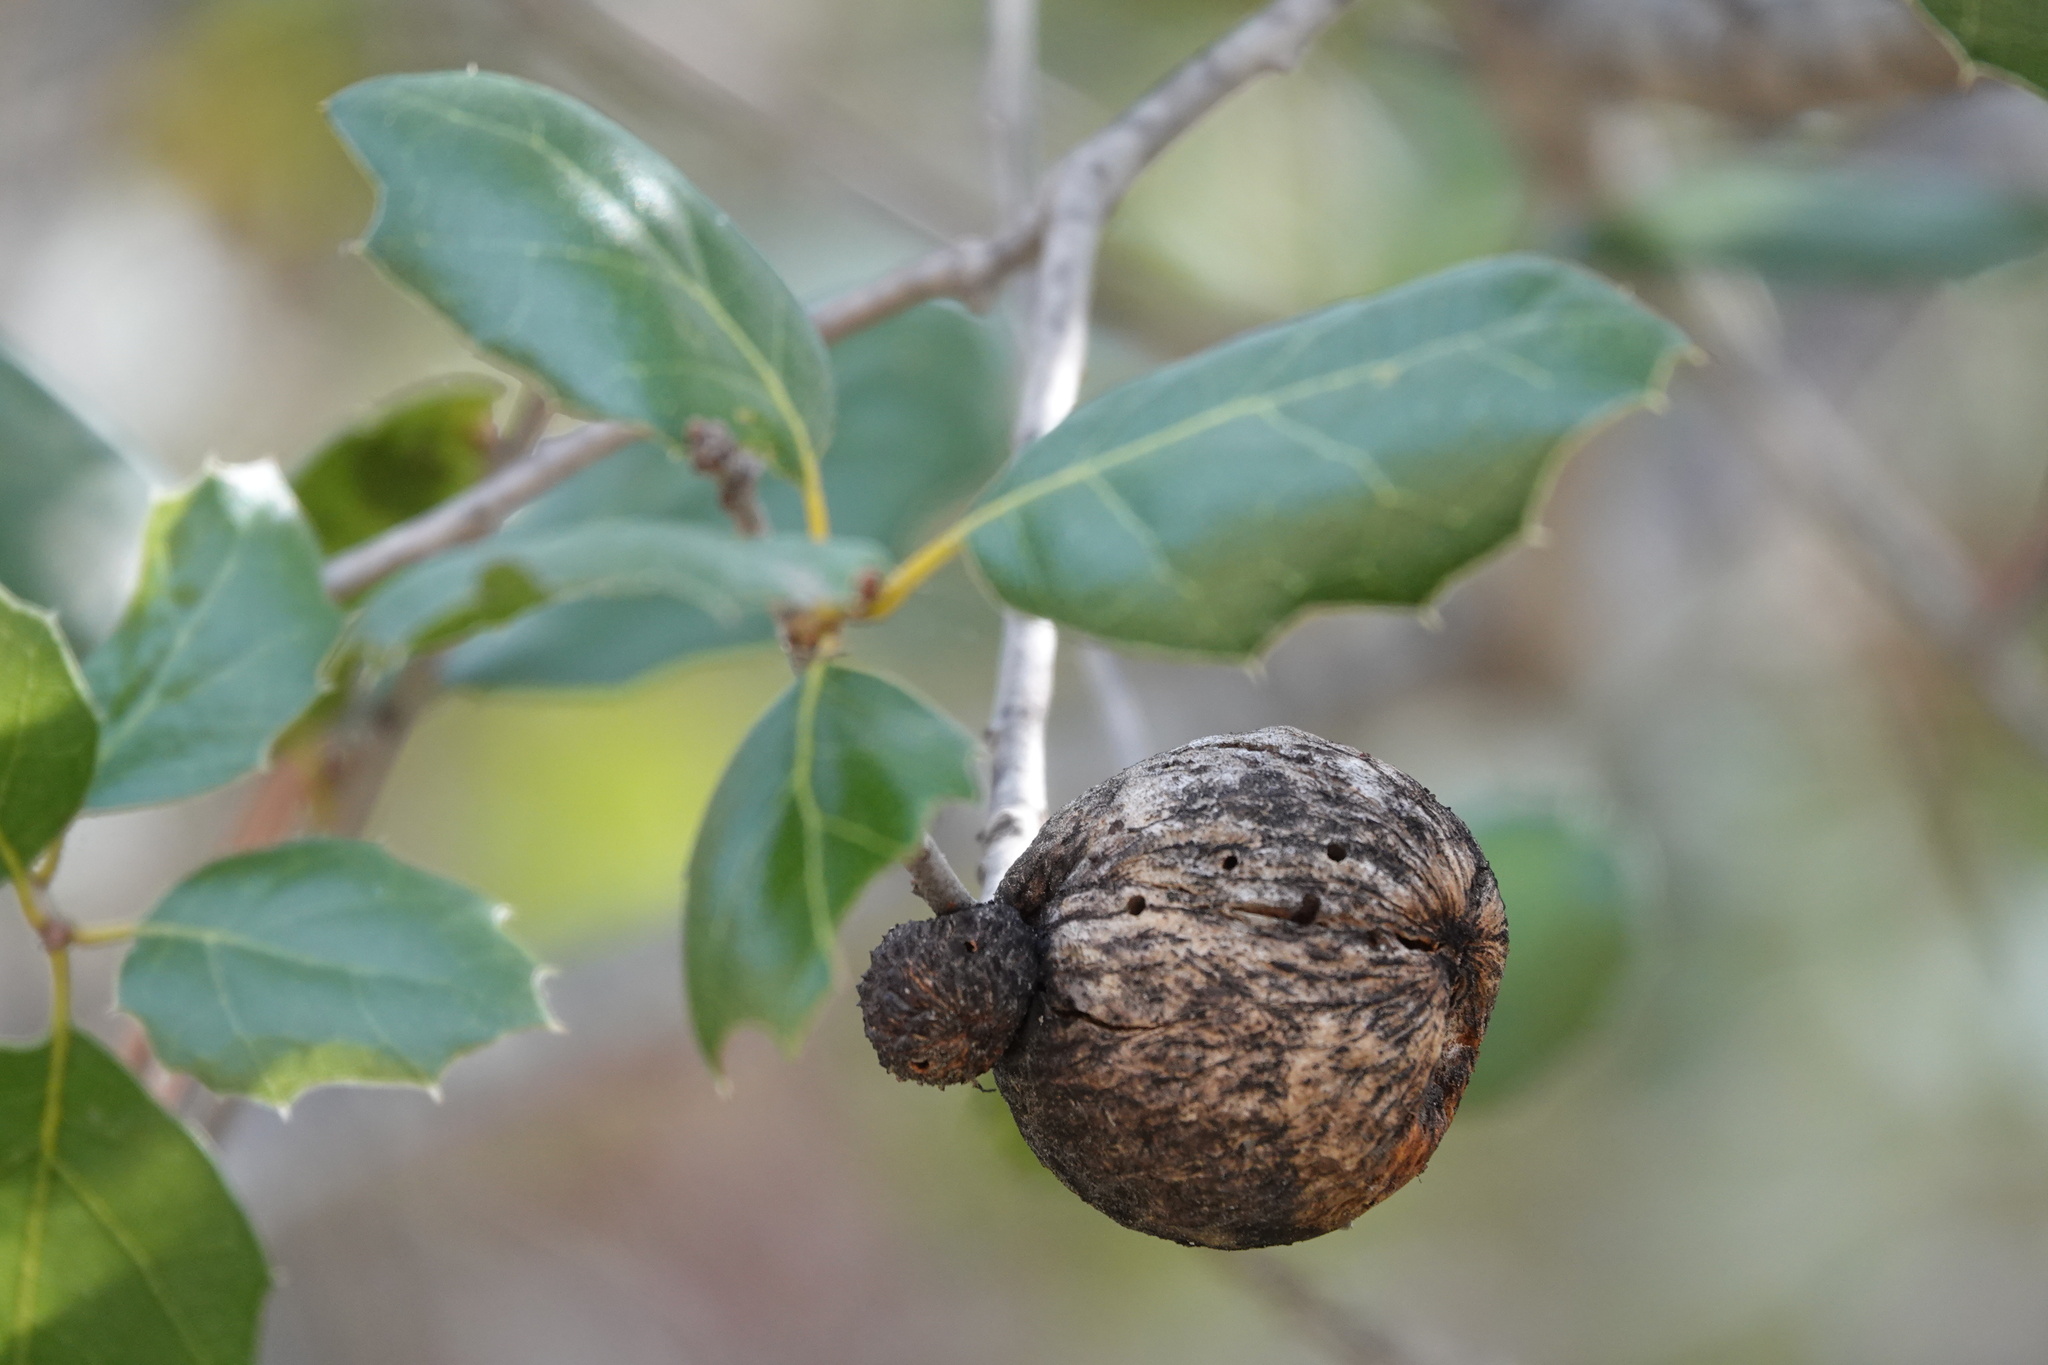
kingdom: Animalia
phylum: Arthropoda
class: Insecta
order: Hymenoptera
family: Cynipidae
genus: Amphibolips
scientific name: Amphibolips quercuspomiformis
